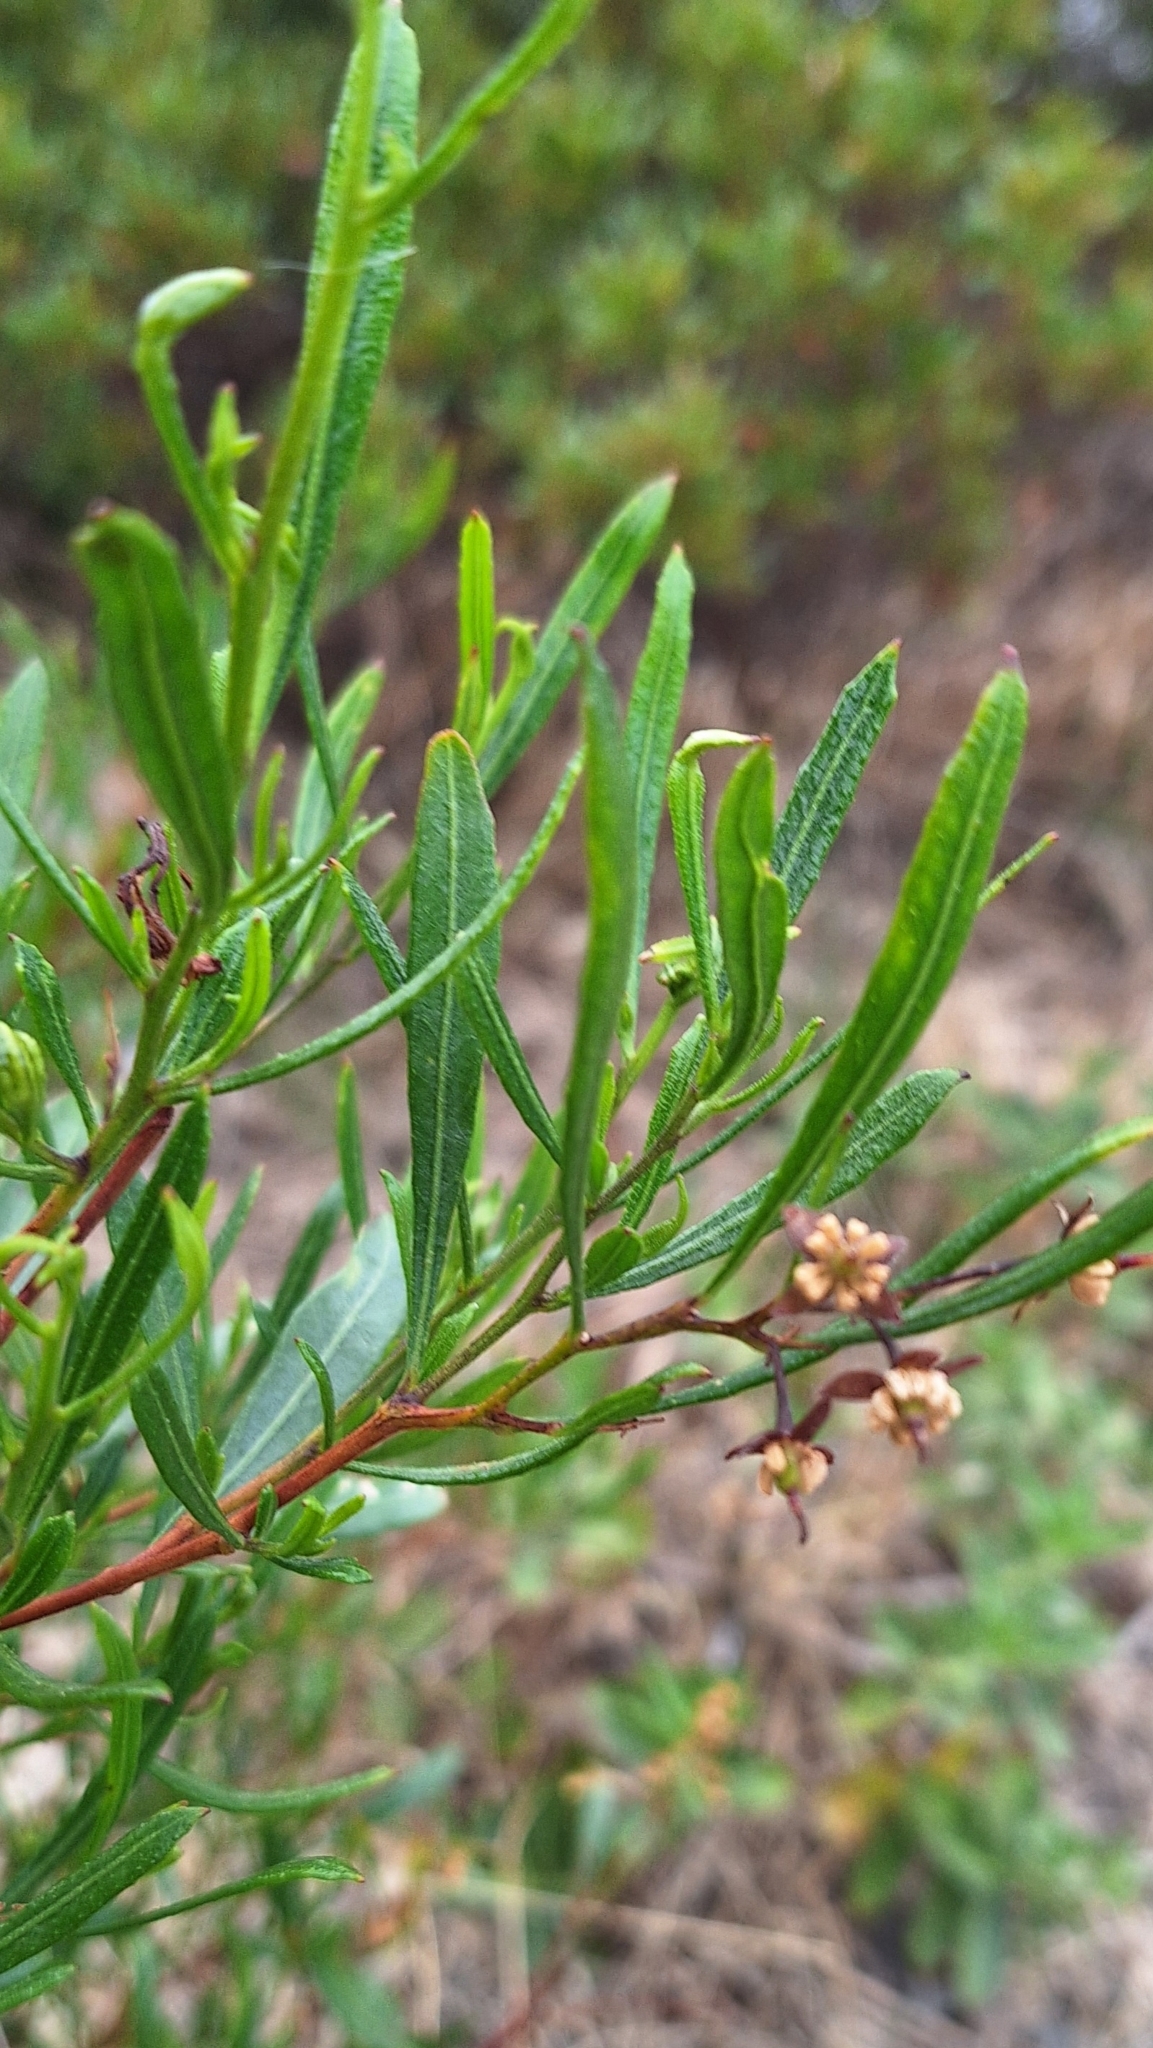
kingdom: Plantae
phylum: Tracheophyta
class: Magnoliopsida
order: Sapindales
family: Sapindaceae
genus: Dodonaea
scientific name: Dodonaea viscosa
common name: Hopbush
